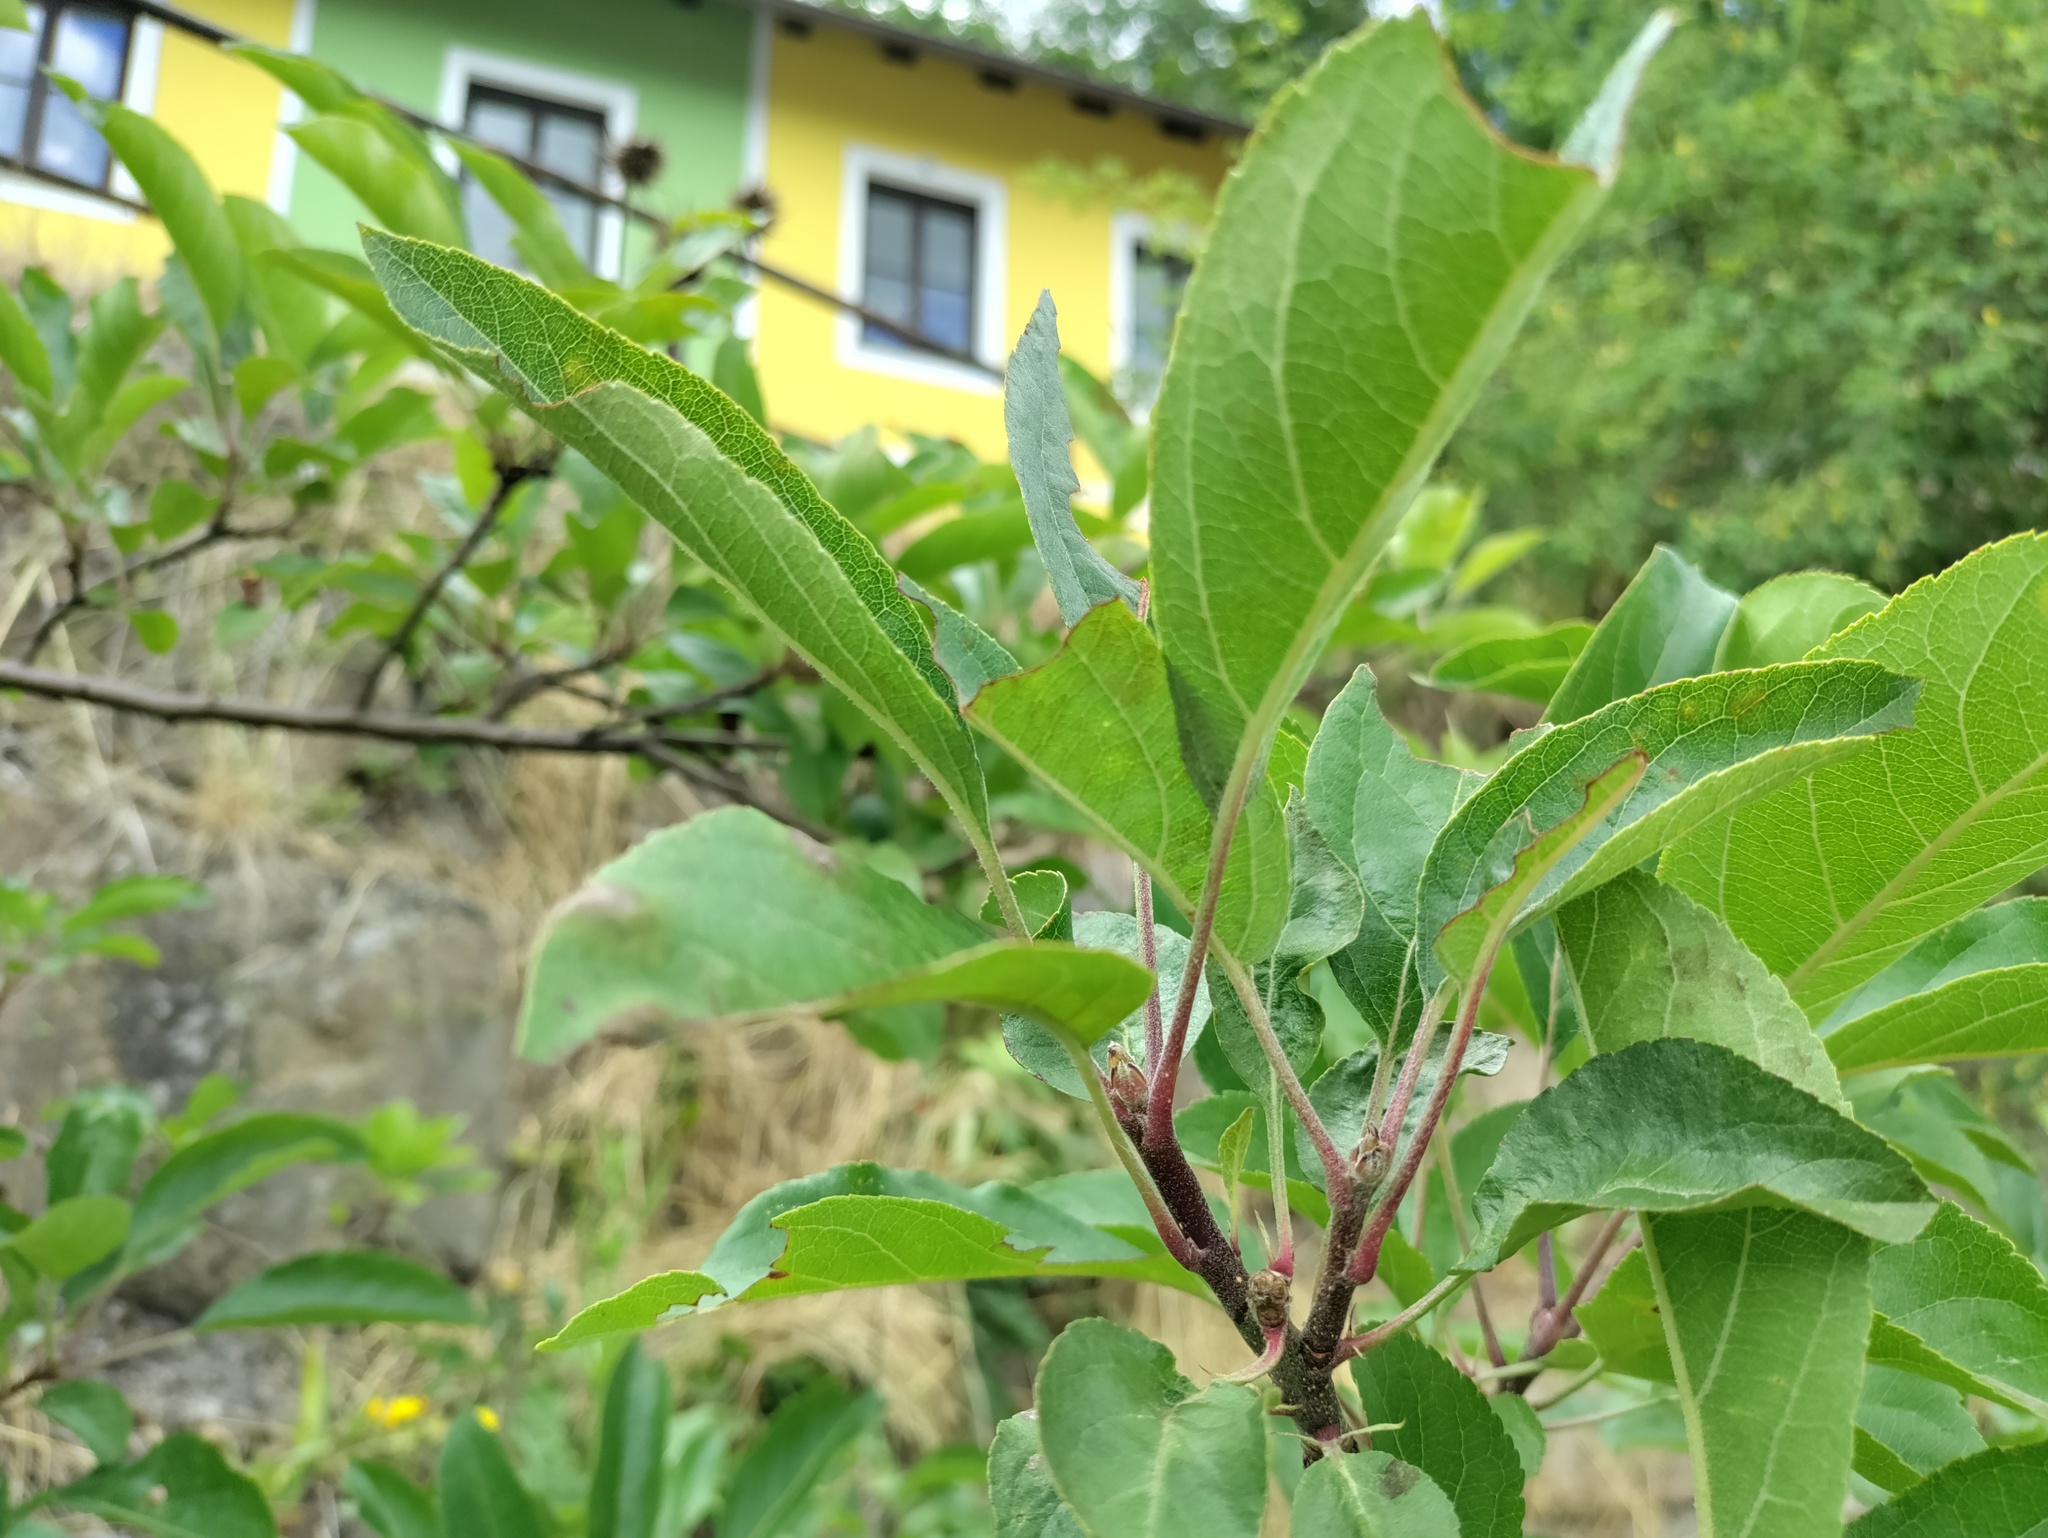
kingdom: Plantae
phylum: Tracheophyta
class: Magnoliopsida
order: Rosales
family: Rosaceae
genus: Malus
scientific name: Malus domestica
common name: Apple
